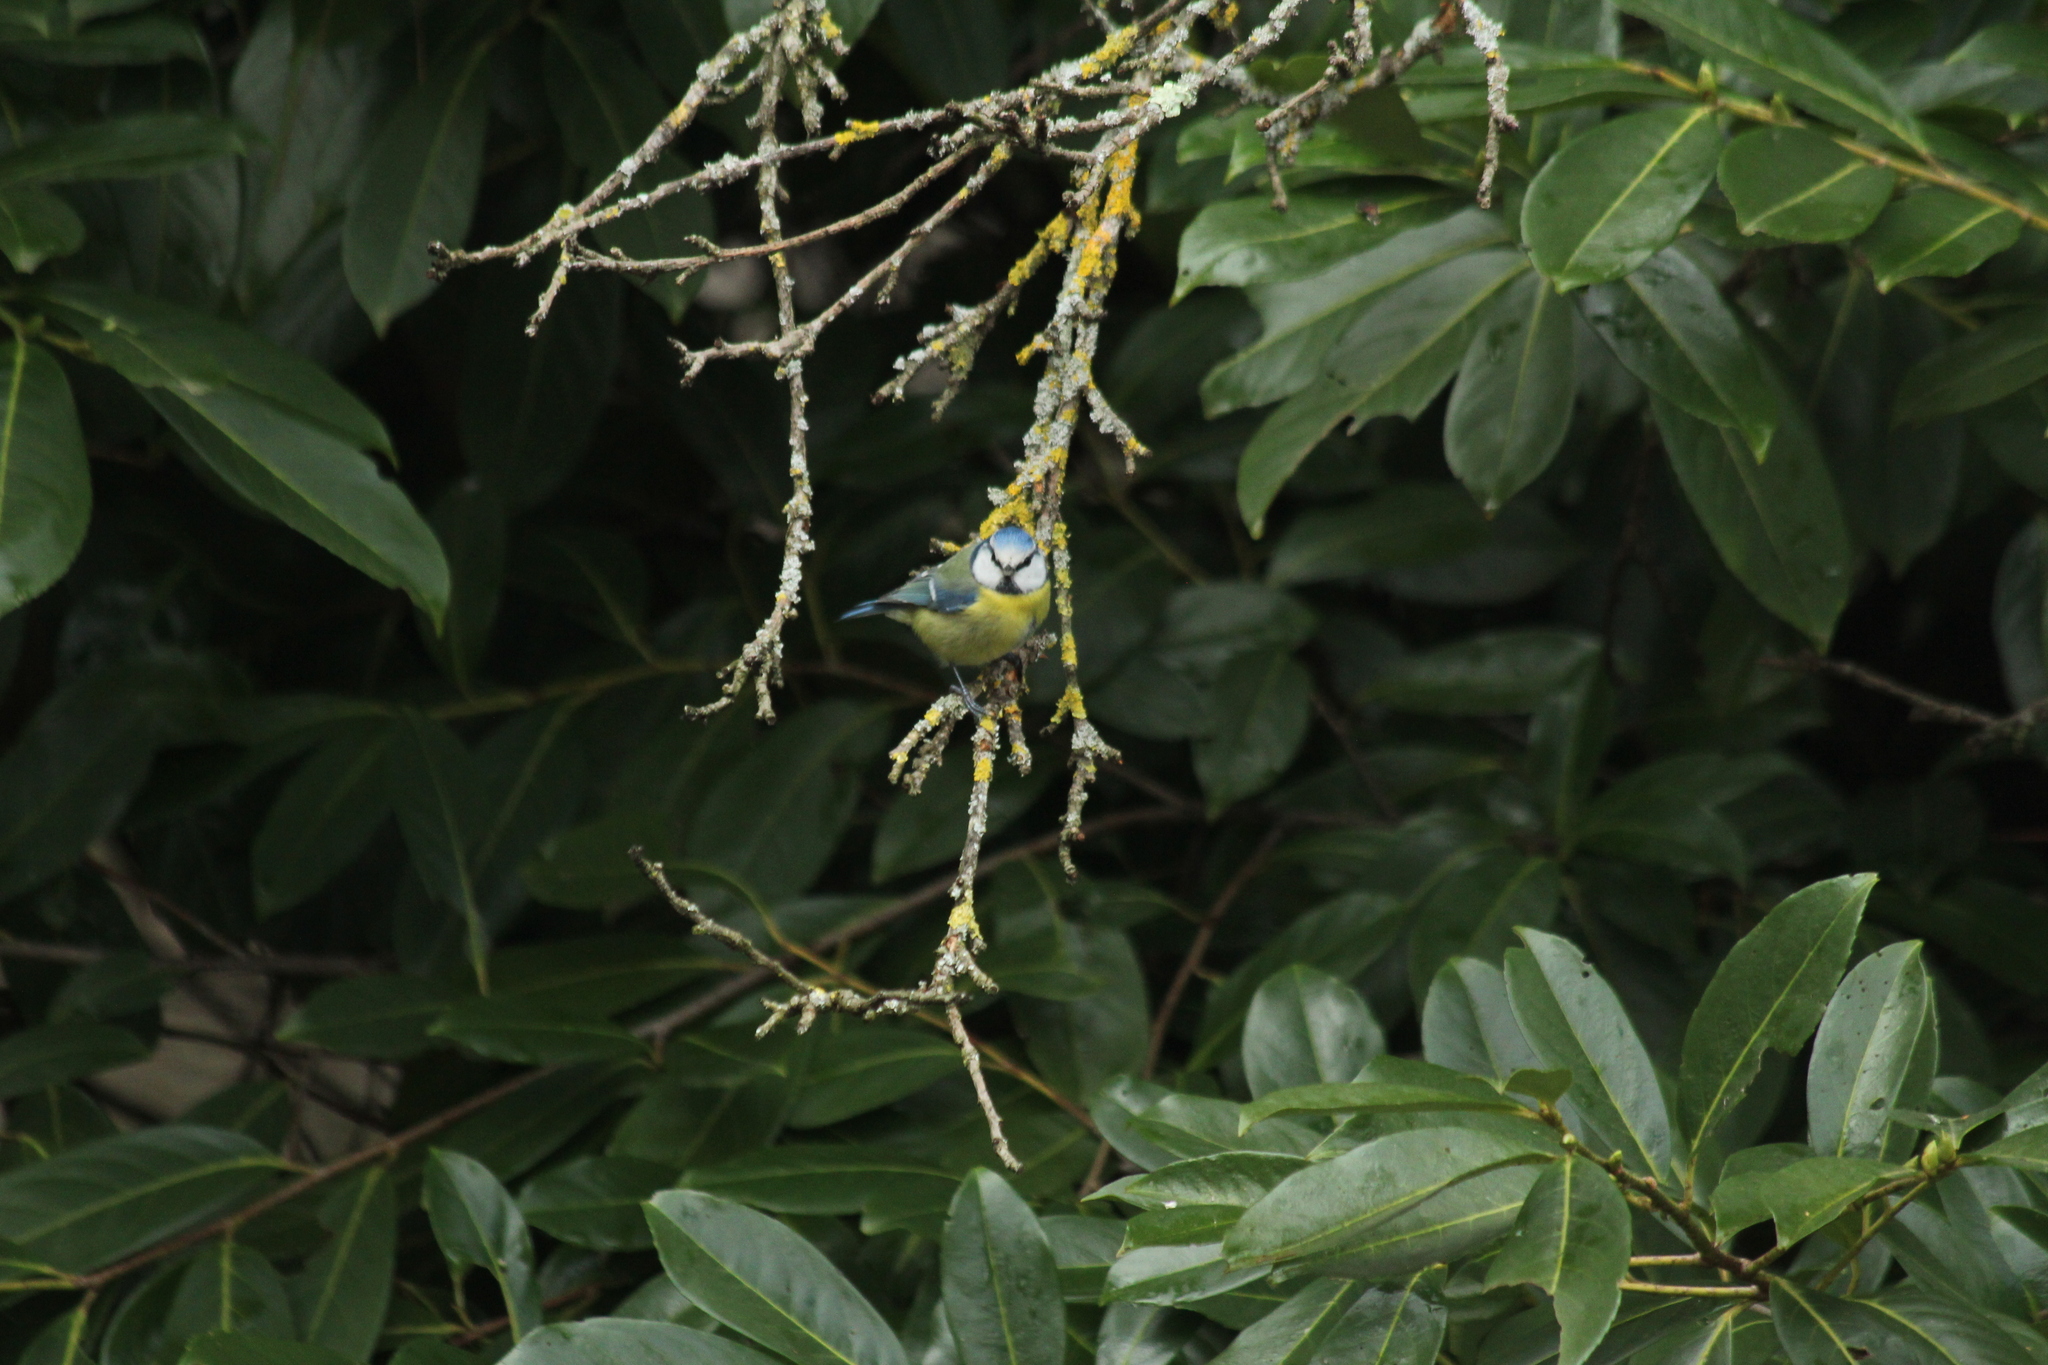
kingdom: Animalia
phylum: Chordata
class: Aves
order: Passeriformes
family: Paridae
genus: Cyanistes
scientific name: Cyanistes caeruleus
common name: Eurasian blue tit
